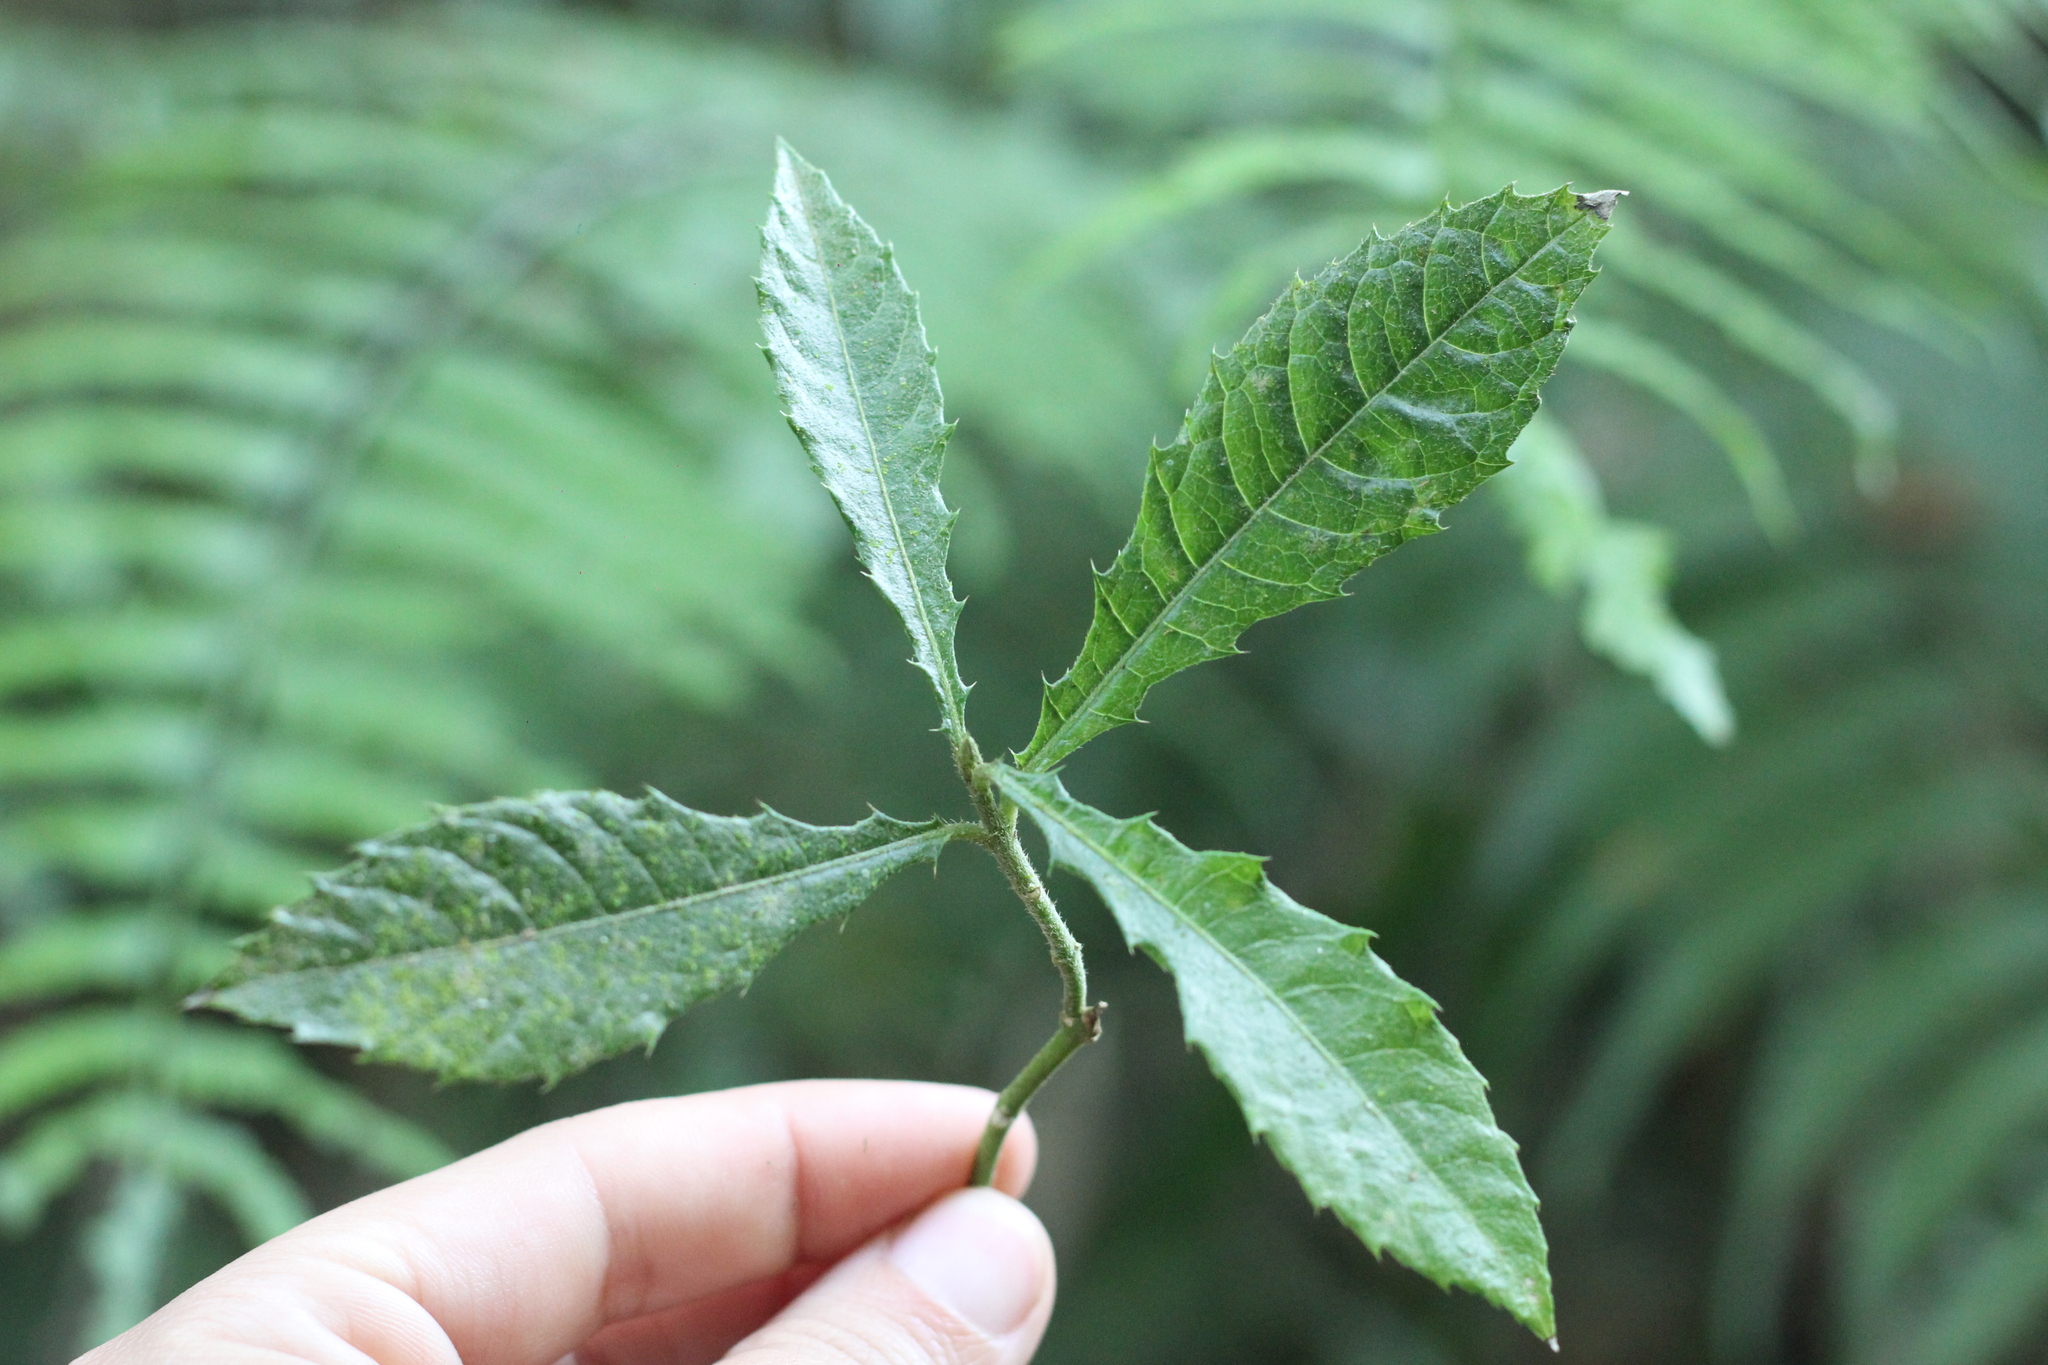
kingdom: Plantae
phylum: Tracheophyta
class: Magnoliopsida
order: Lamiales
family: Acanthaceae
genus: Aphelandra
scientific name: Aphelandra hieronymi
